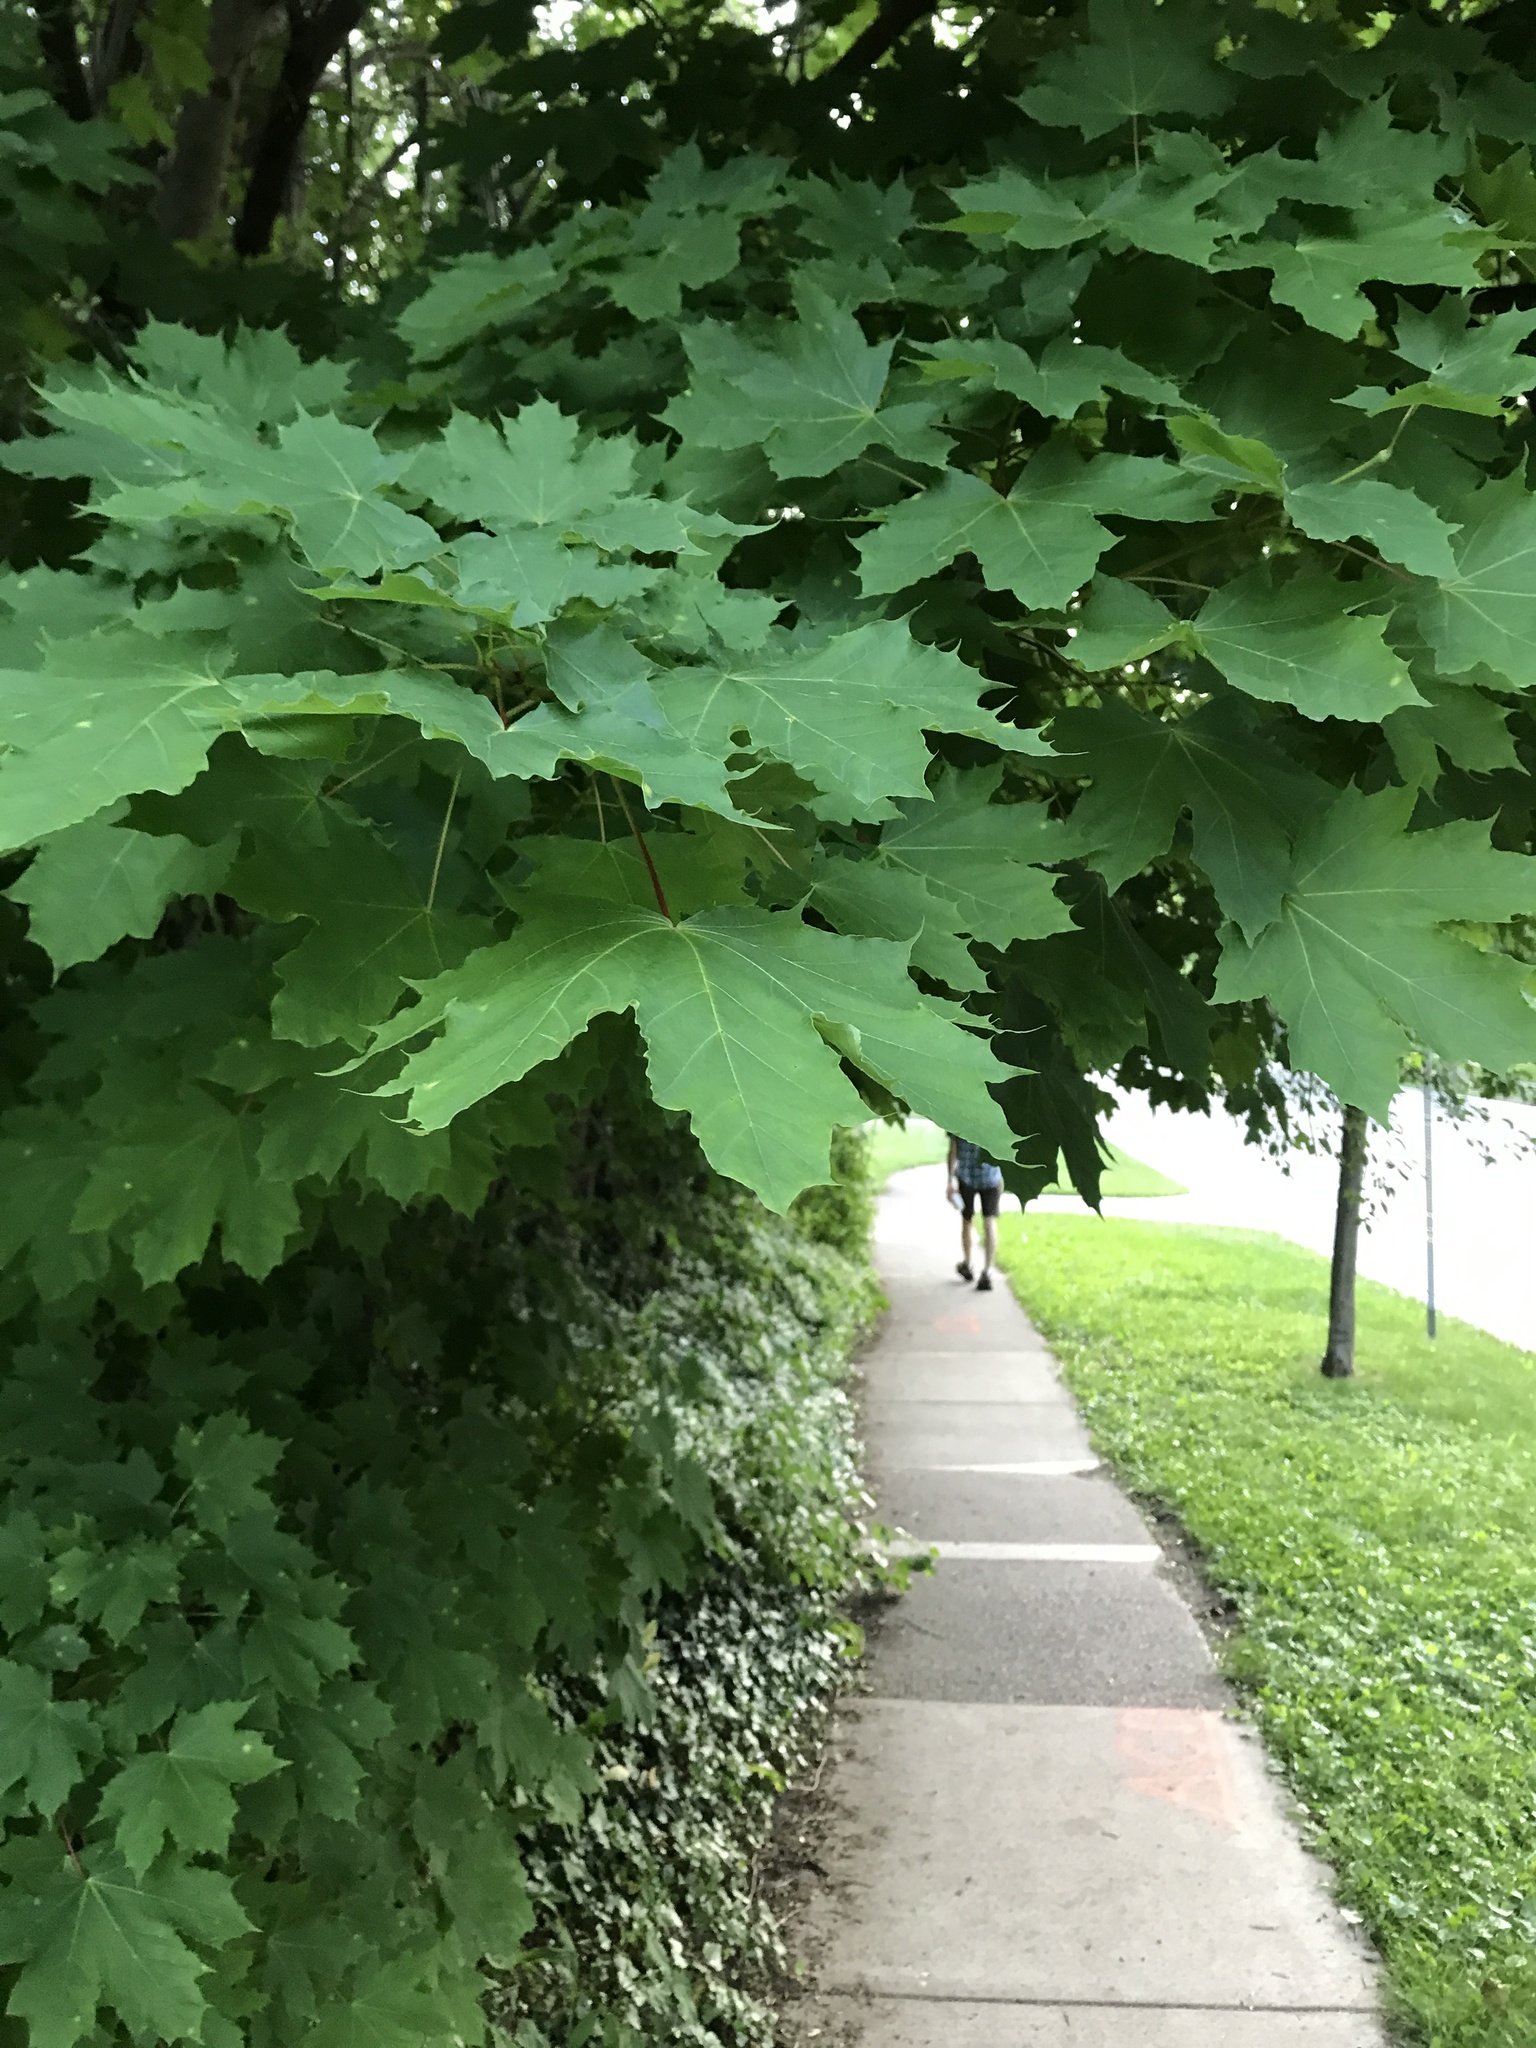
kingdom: Plantae
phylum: Tracheophyta
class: Magnoliopsida
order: Sapindales
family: Sapindaceae
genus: Acer
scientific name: Acer platanoides
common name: Norway maple
